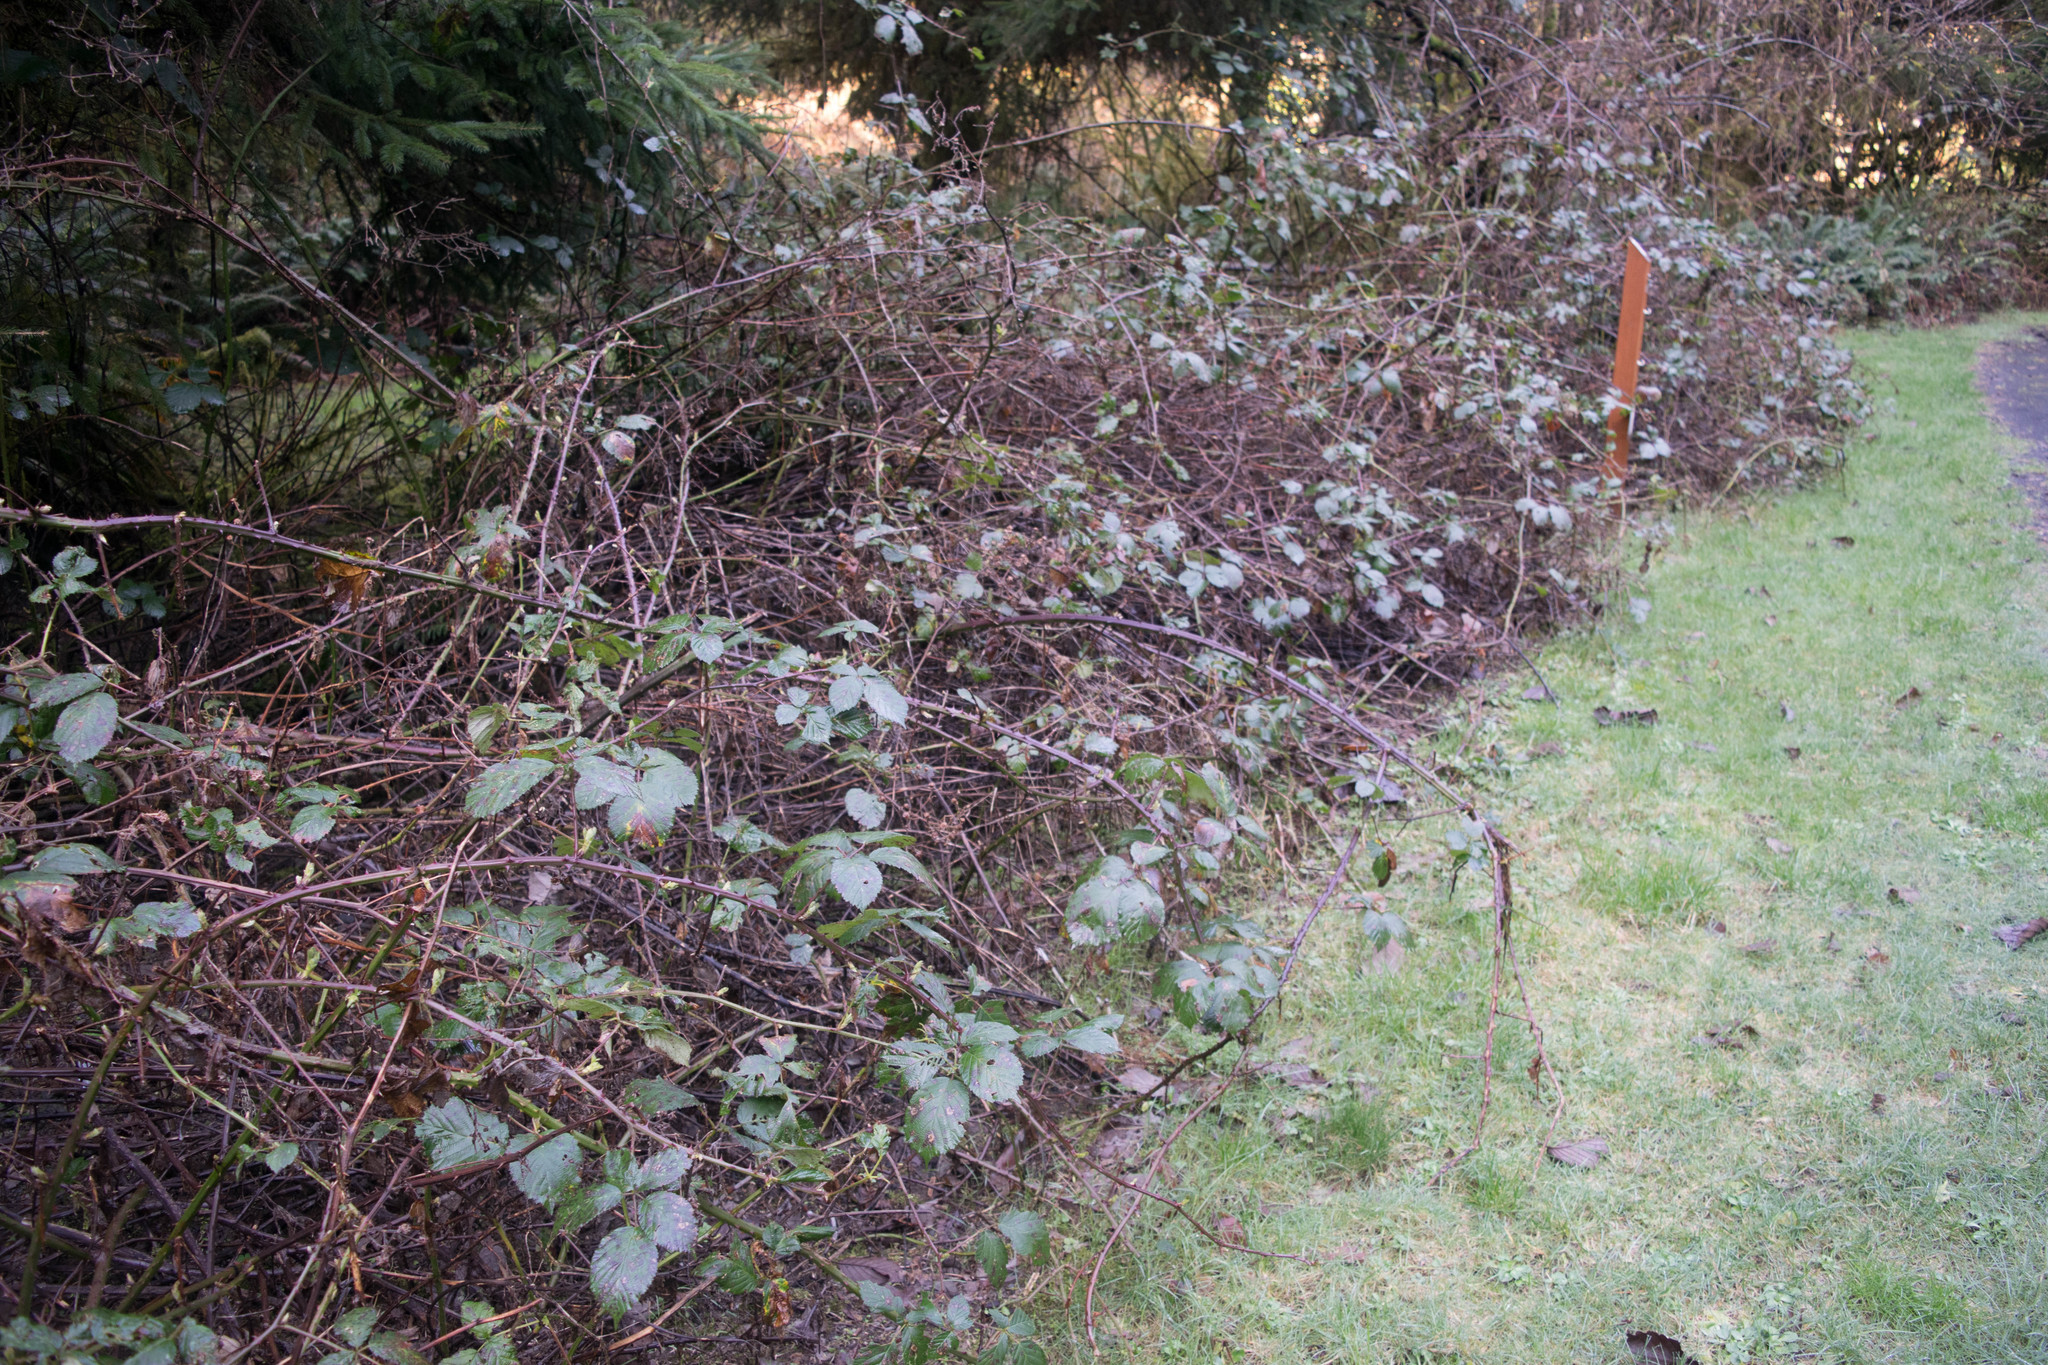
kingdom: Plantae
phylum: Tracheophyta
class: Magnoliopsida
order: Rosales
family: Rosaceae
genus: Rubus
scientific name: Rubus armeniacus
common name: Himalayan blackberry
